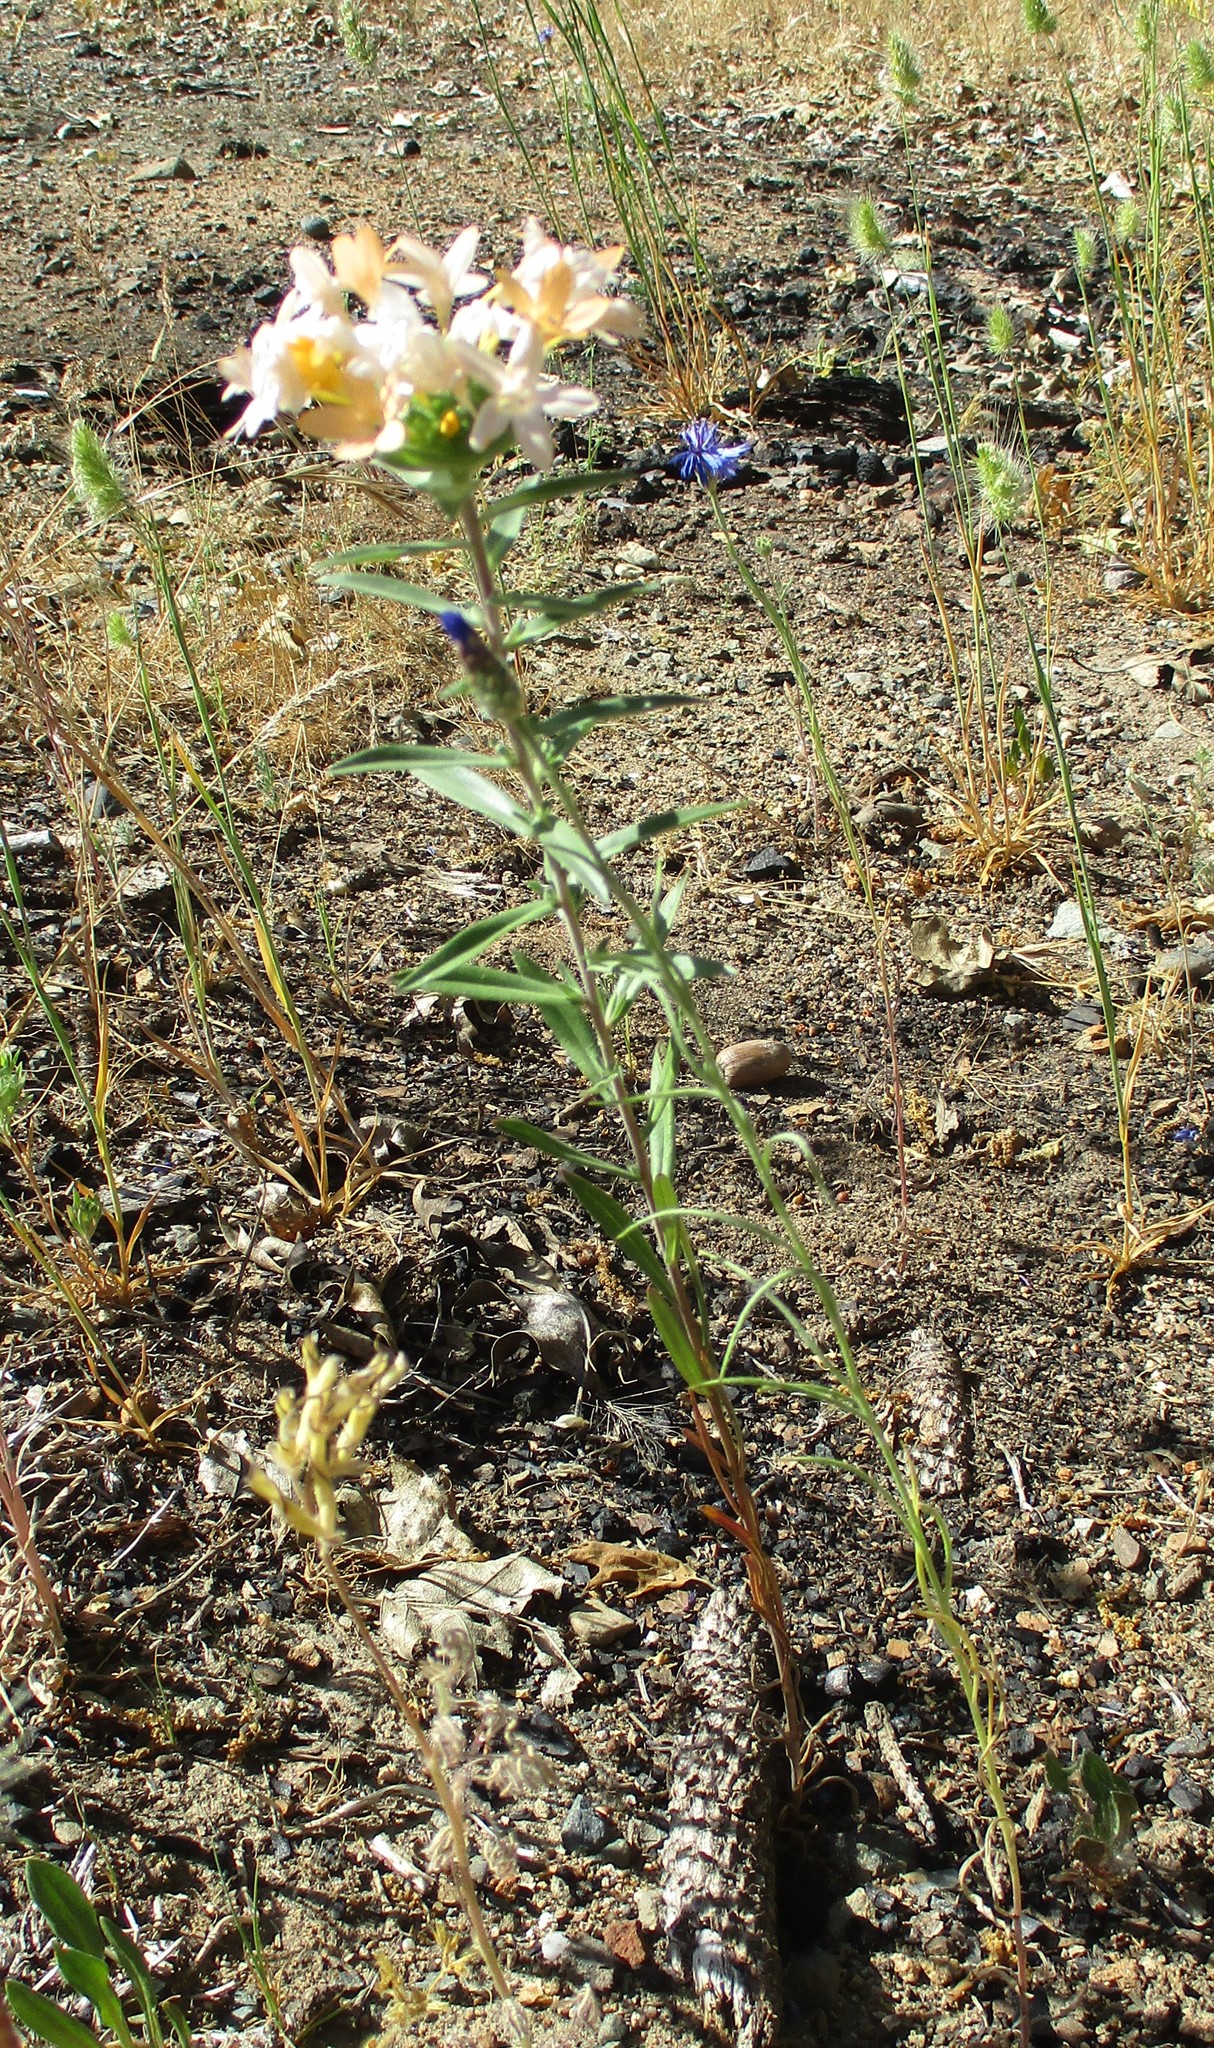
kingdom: Plantae
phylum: Tracheophyta
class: Magnoliopsida
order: Ericales
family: Polemoniaceae
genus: Collomia
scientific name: Collomia grandiflora
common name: California strawflower
